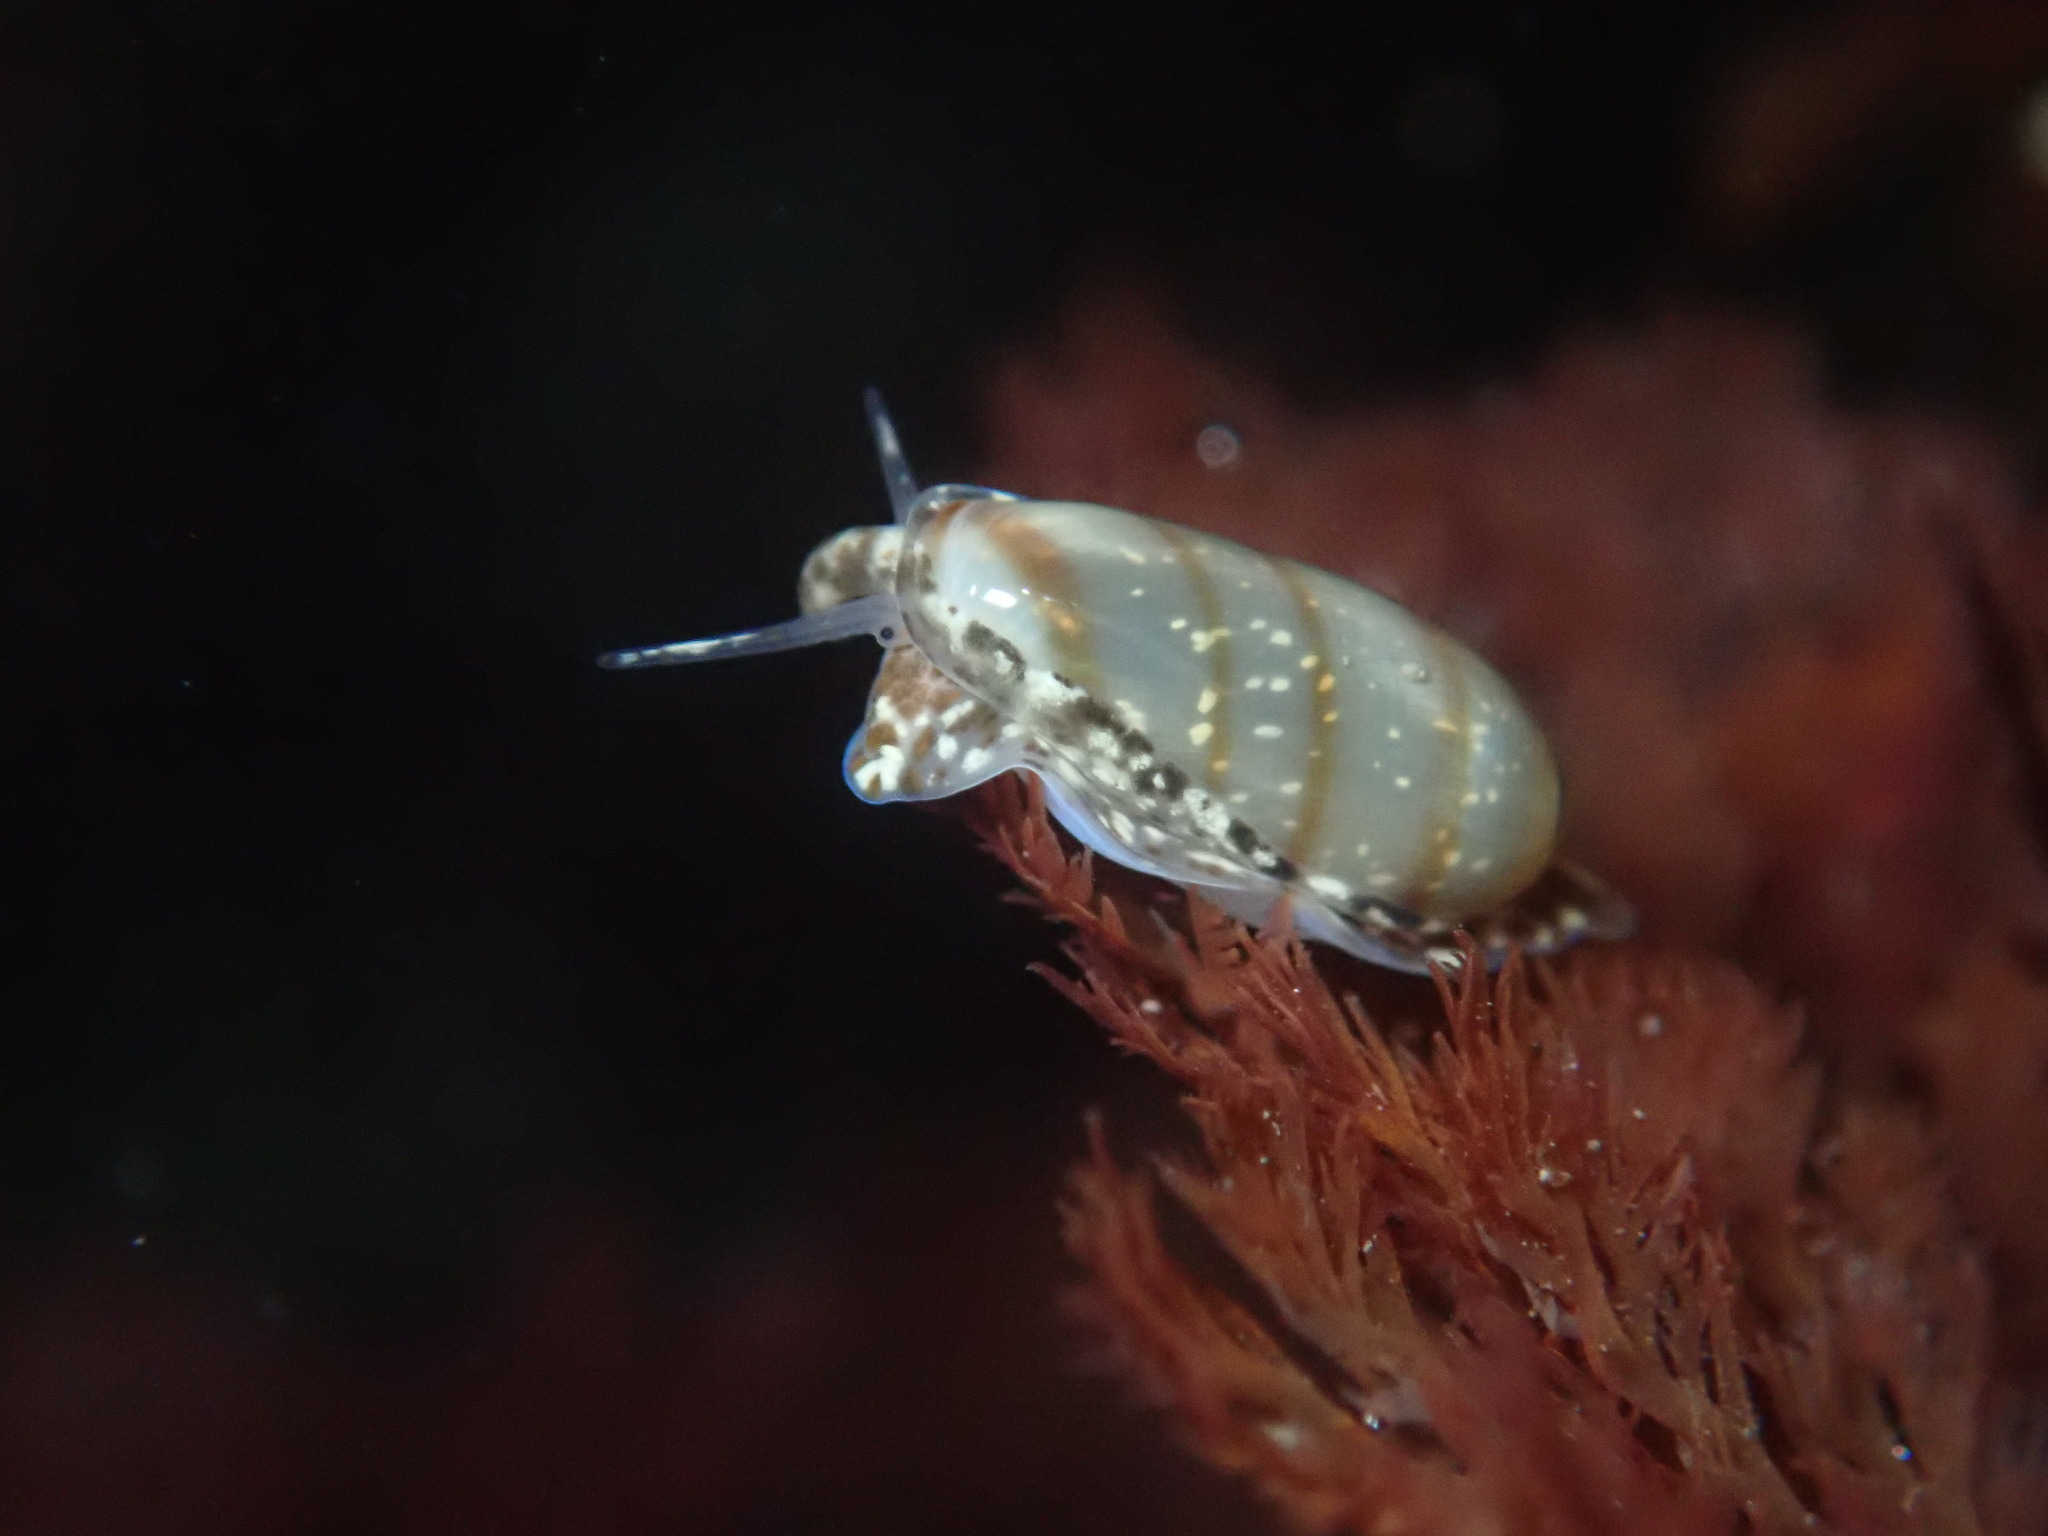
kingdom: Animalia
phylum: Mollusca
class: Gastropoda
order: Neogastropoda
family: Marginellidae
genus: Volvarina
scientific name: Volvarina taeniolata
